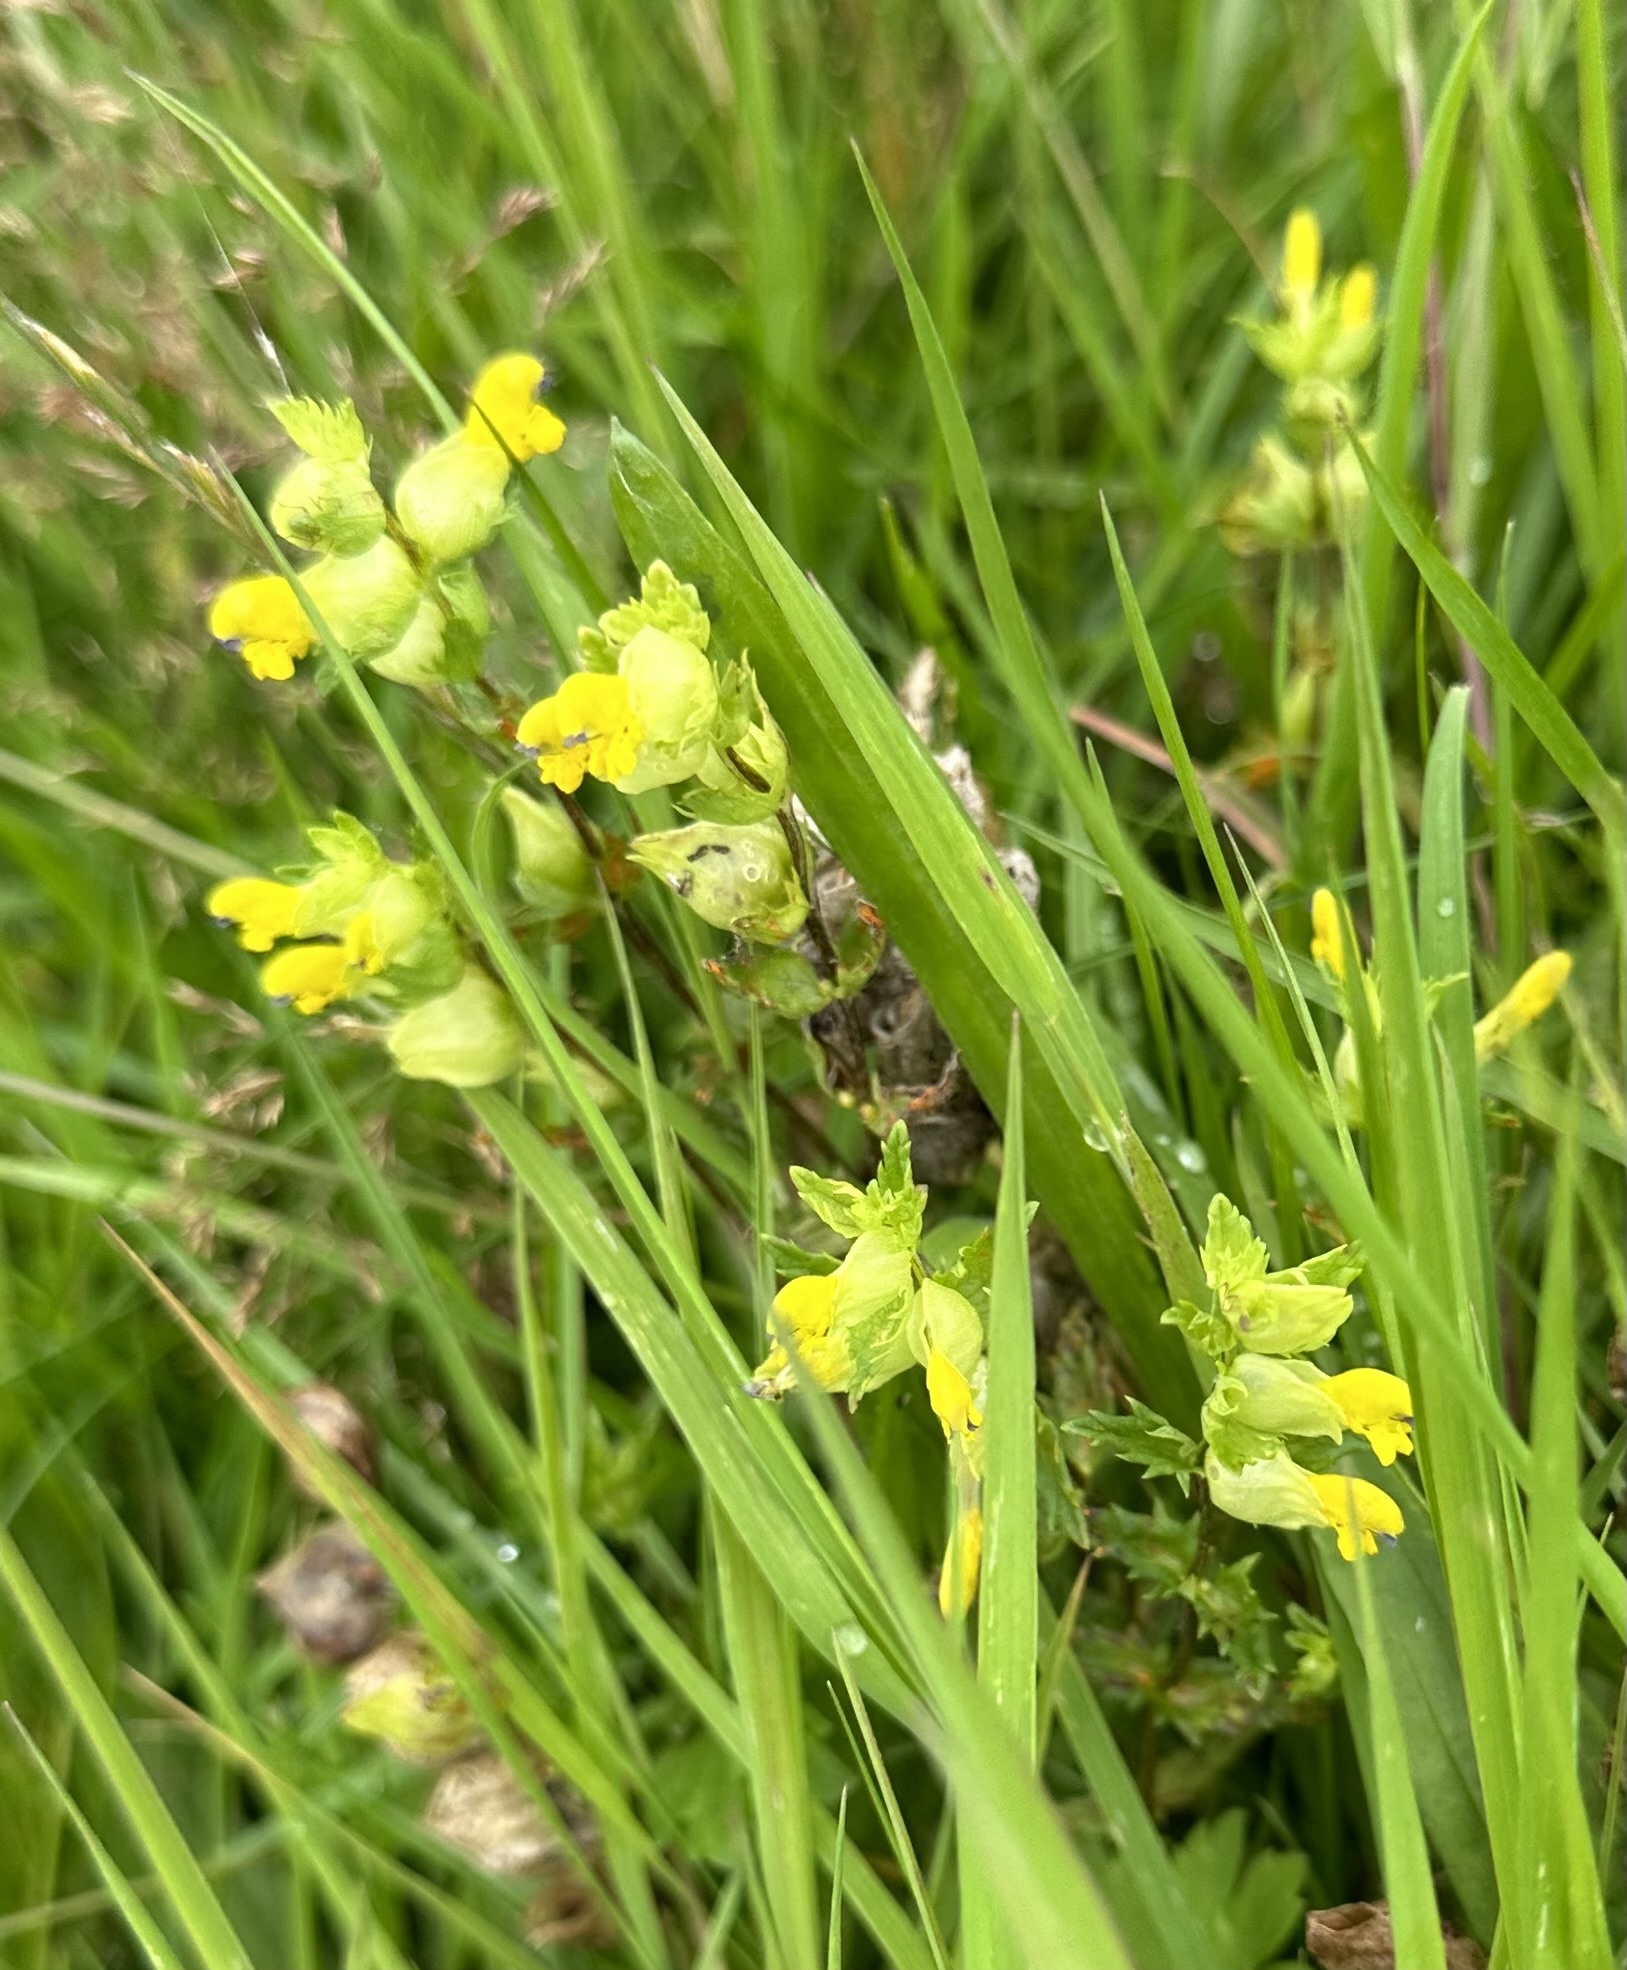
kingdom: Plantae
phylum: Tracheophyta
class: Magnoliopsida
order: Lamiales
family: Orobanchaceae
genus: Rhinanthus
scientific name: Rhinanthus minor
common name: Yellow-rattle
